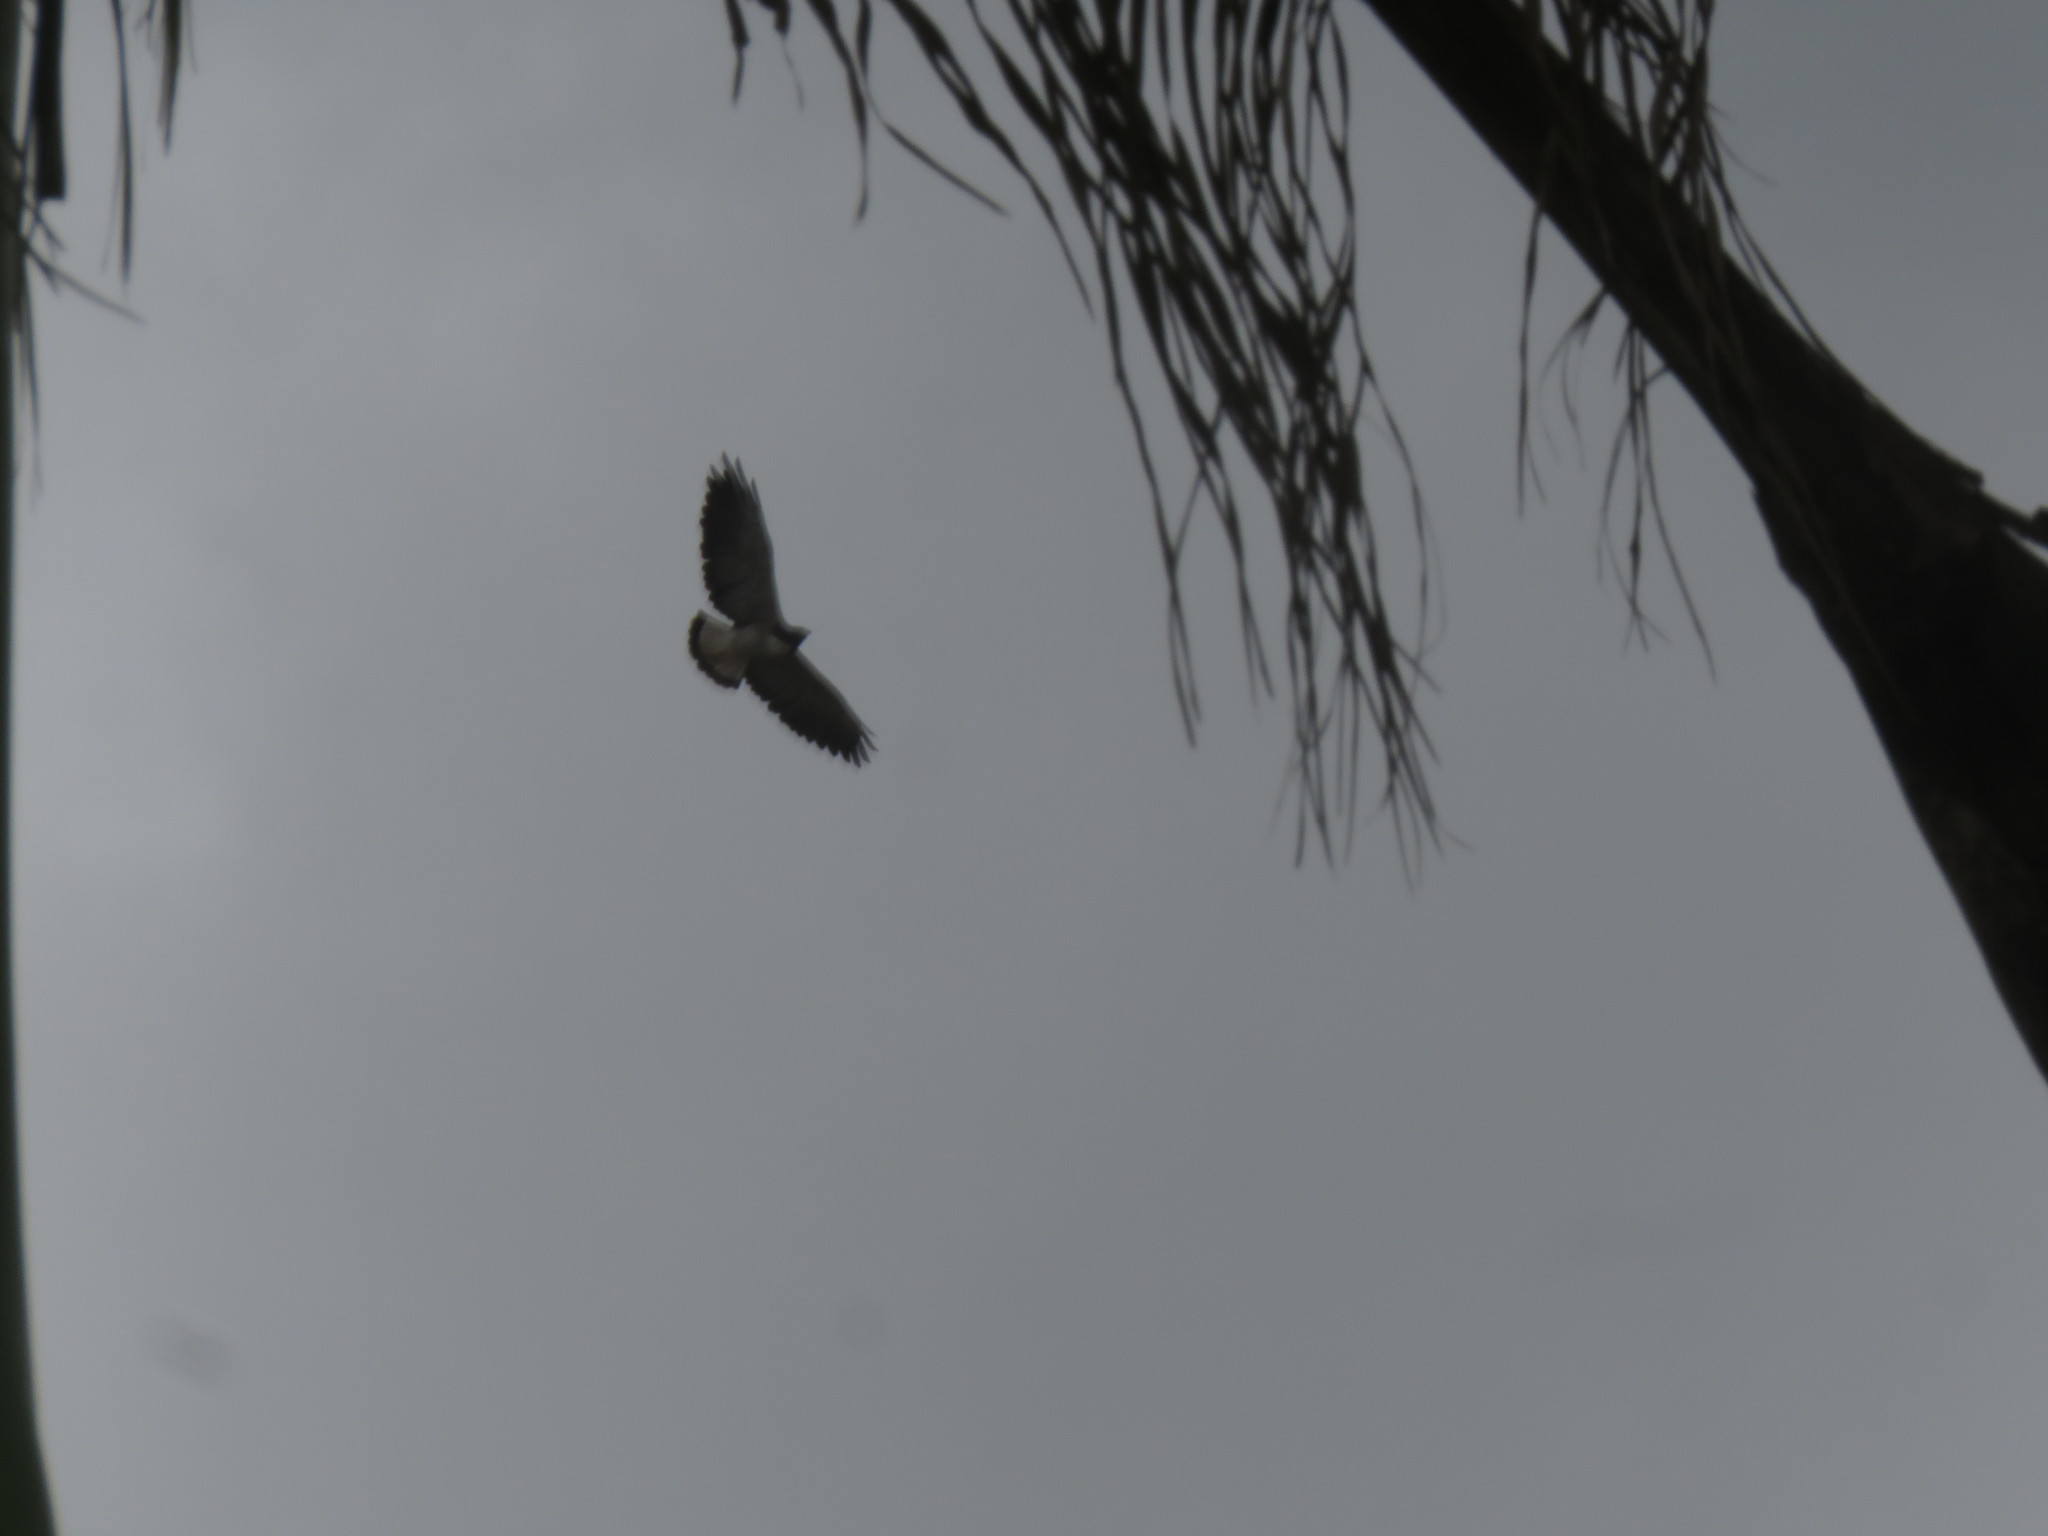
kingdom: Animalia
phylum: Chordata
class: Aves
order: Accipitriformes
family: Accipitridae
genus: Buteo
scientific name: Buteo albicaudatus
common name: White-tailed hawk
